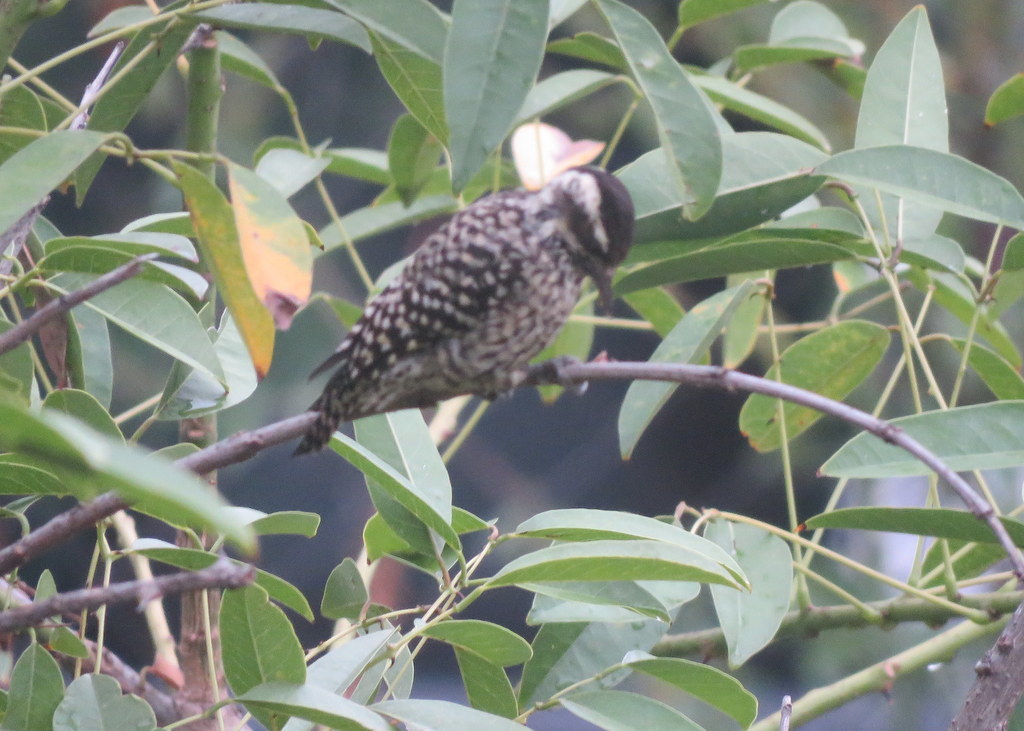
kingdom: Animalia
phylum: Chordata
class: Aves
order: Piciformes
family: Picidae
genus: Veniliornis
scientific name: Veniliornis mixtus
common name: Checkered woodpecker
